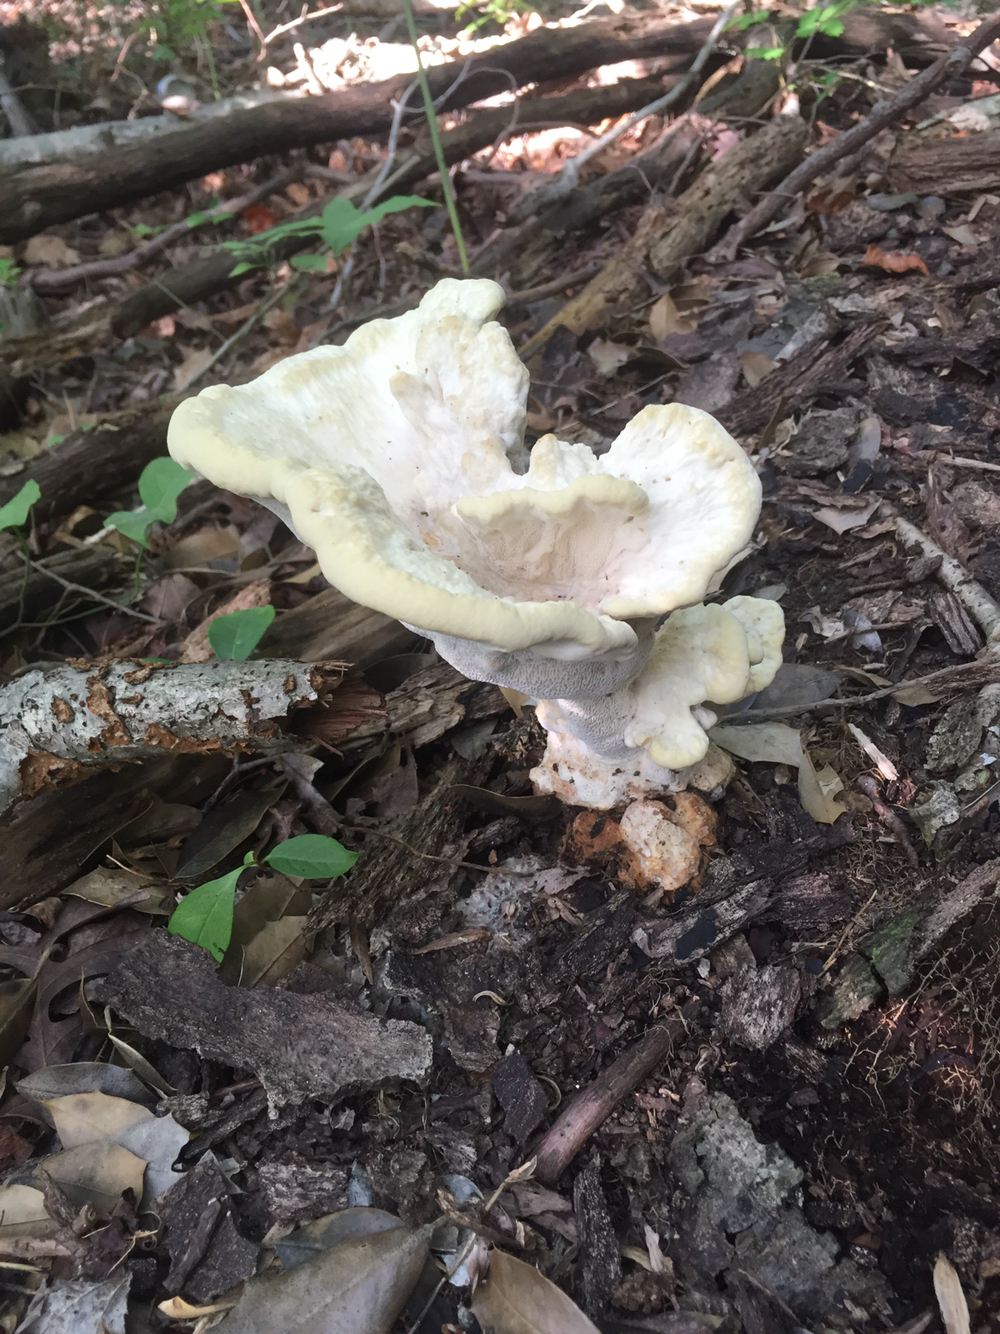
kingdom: Fungi
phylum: Basidiomycota
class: Agaricomycetes
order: Russulales
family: Bondarzewiaceae
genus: Bondarzewia
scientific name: Bondarzewia berkeleyi
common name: Berkeley's polypore
